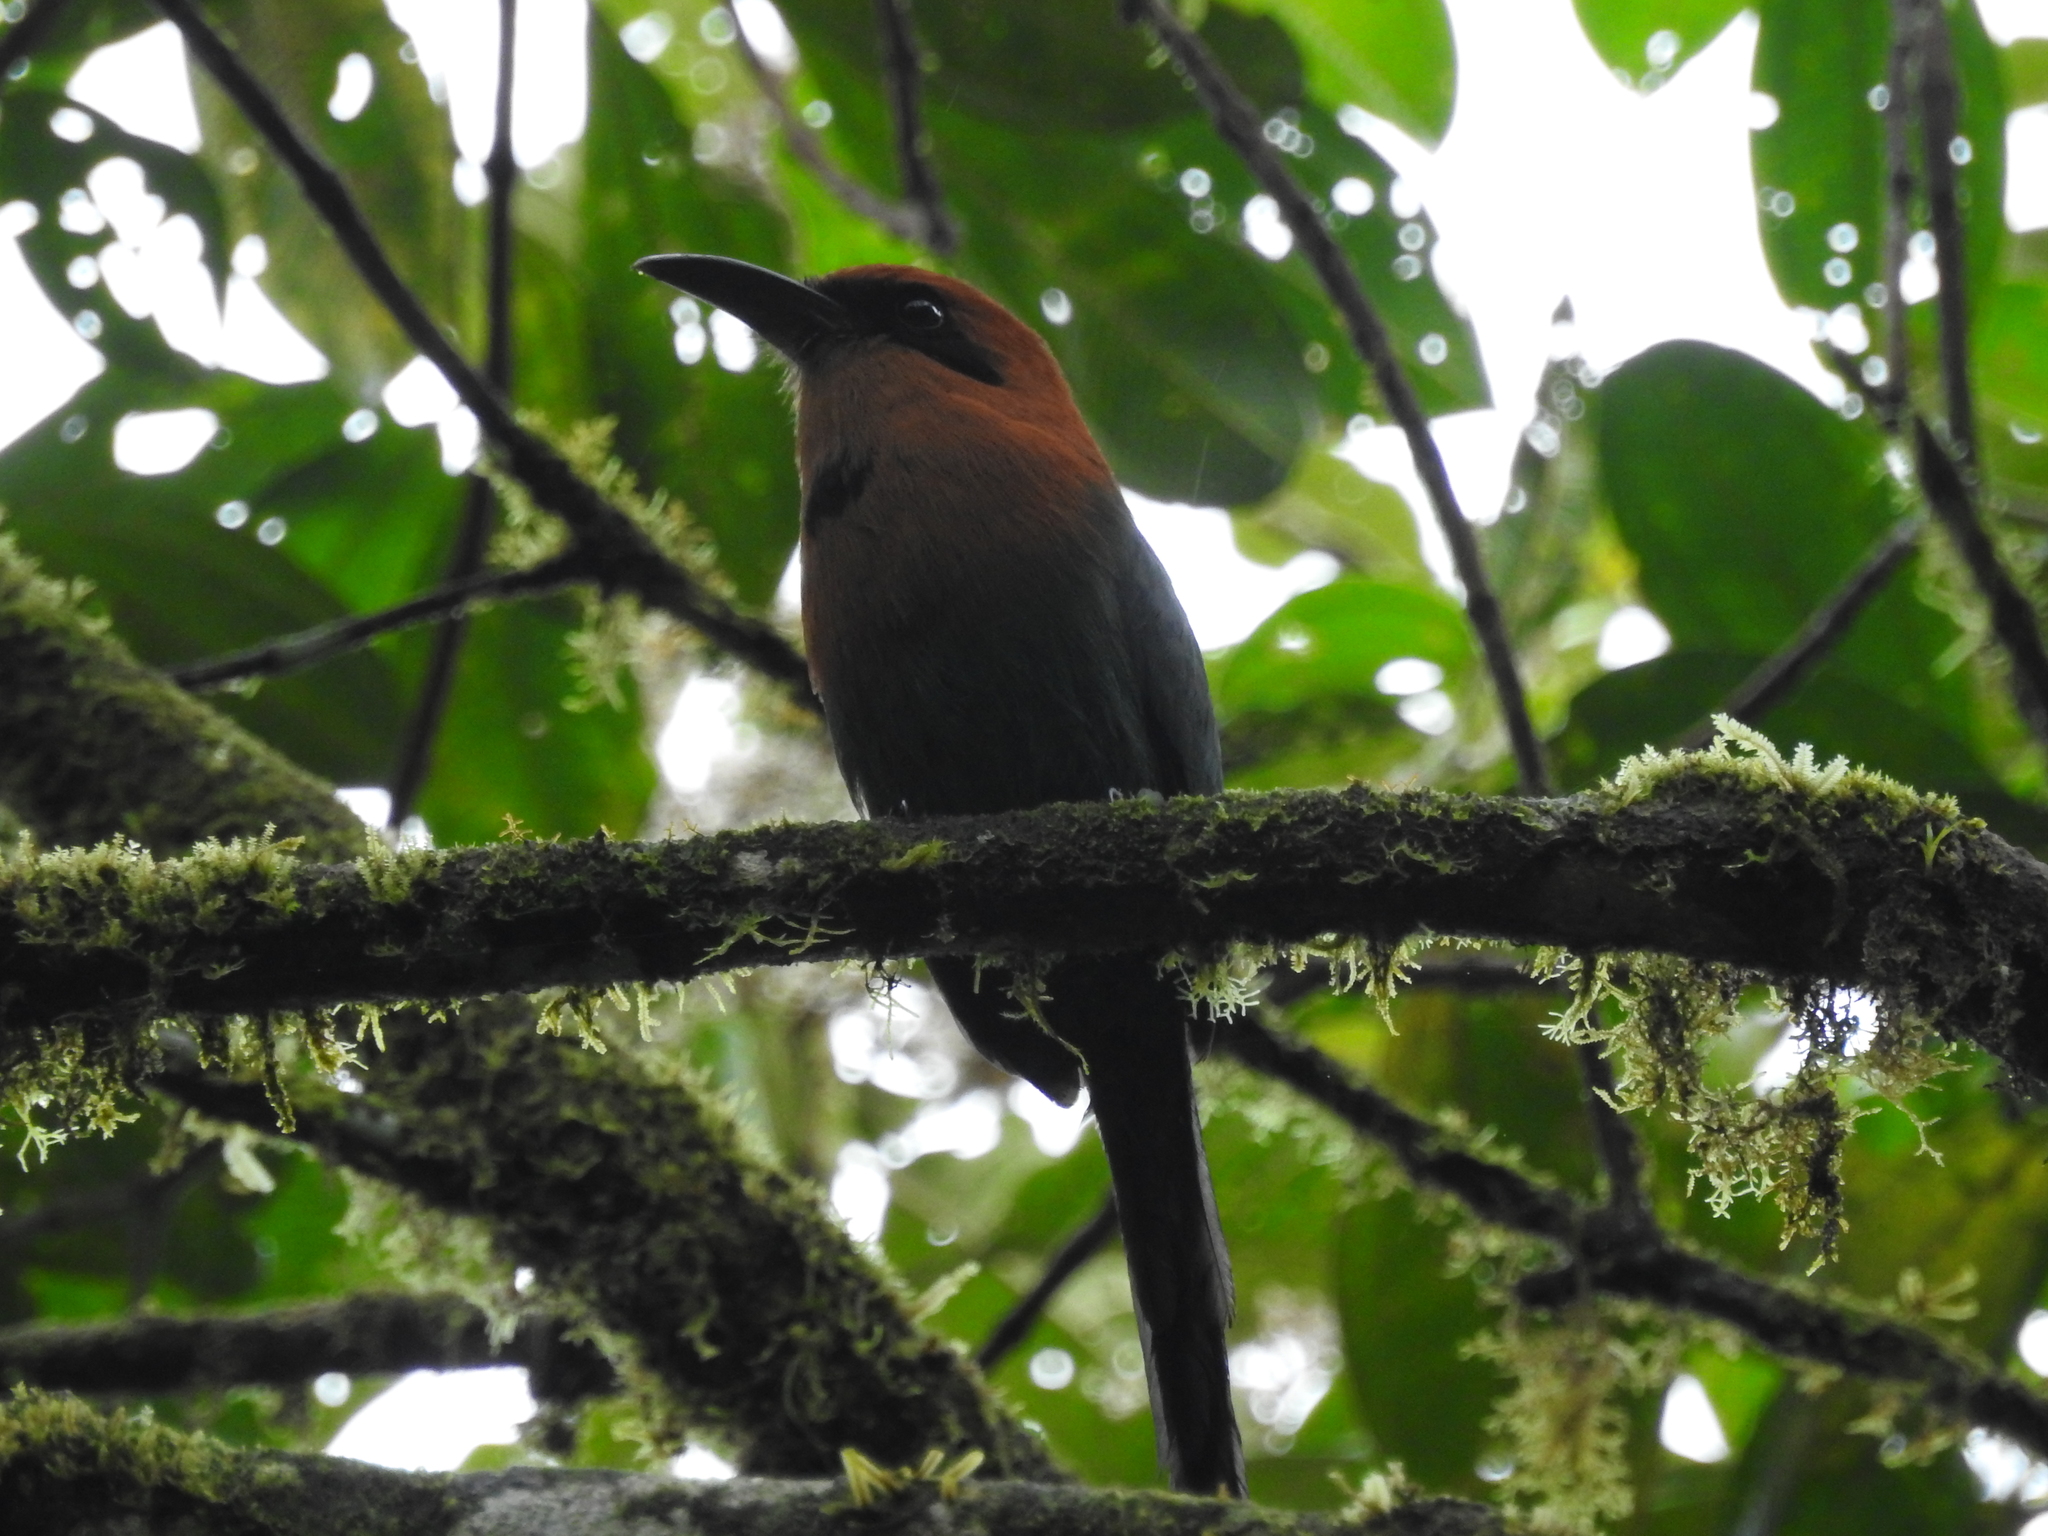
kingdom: Animalia
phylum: Chordata
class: Aves
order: Coraciiformes
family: Momotidae
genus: Electron
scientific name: Electron platyrhynchum
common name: Broad-billed motmot
